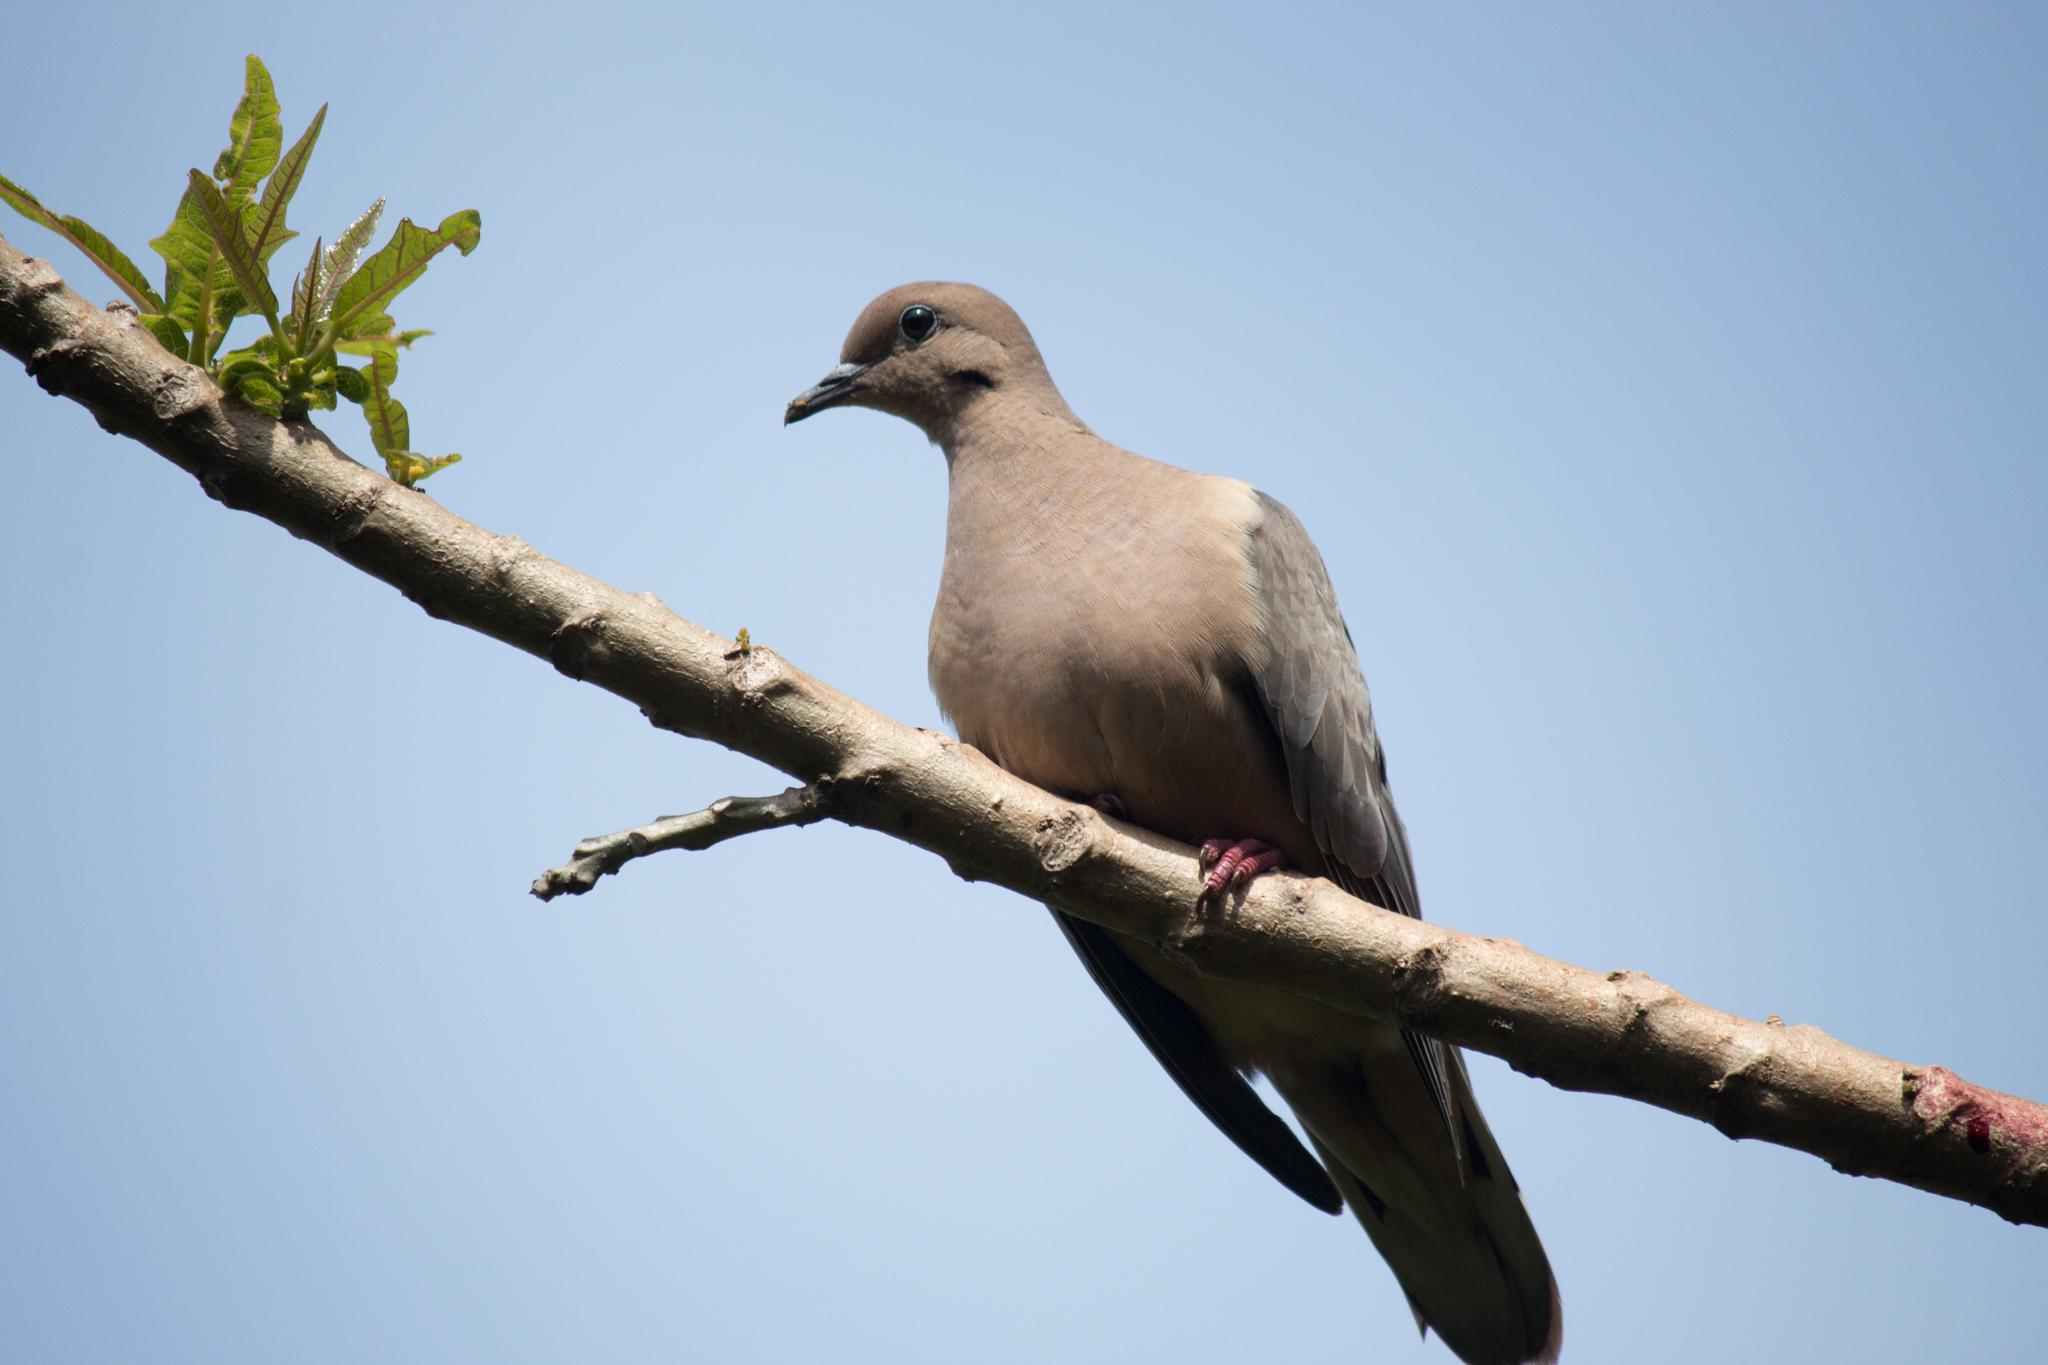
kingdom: Animalia
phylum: Chordata
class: Aves
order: Columbiformes
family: Columbidae
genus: Zenaida
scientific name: Zenaida auriculata
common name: Eared dove
